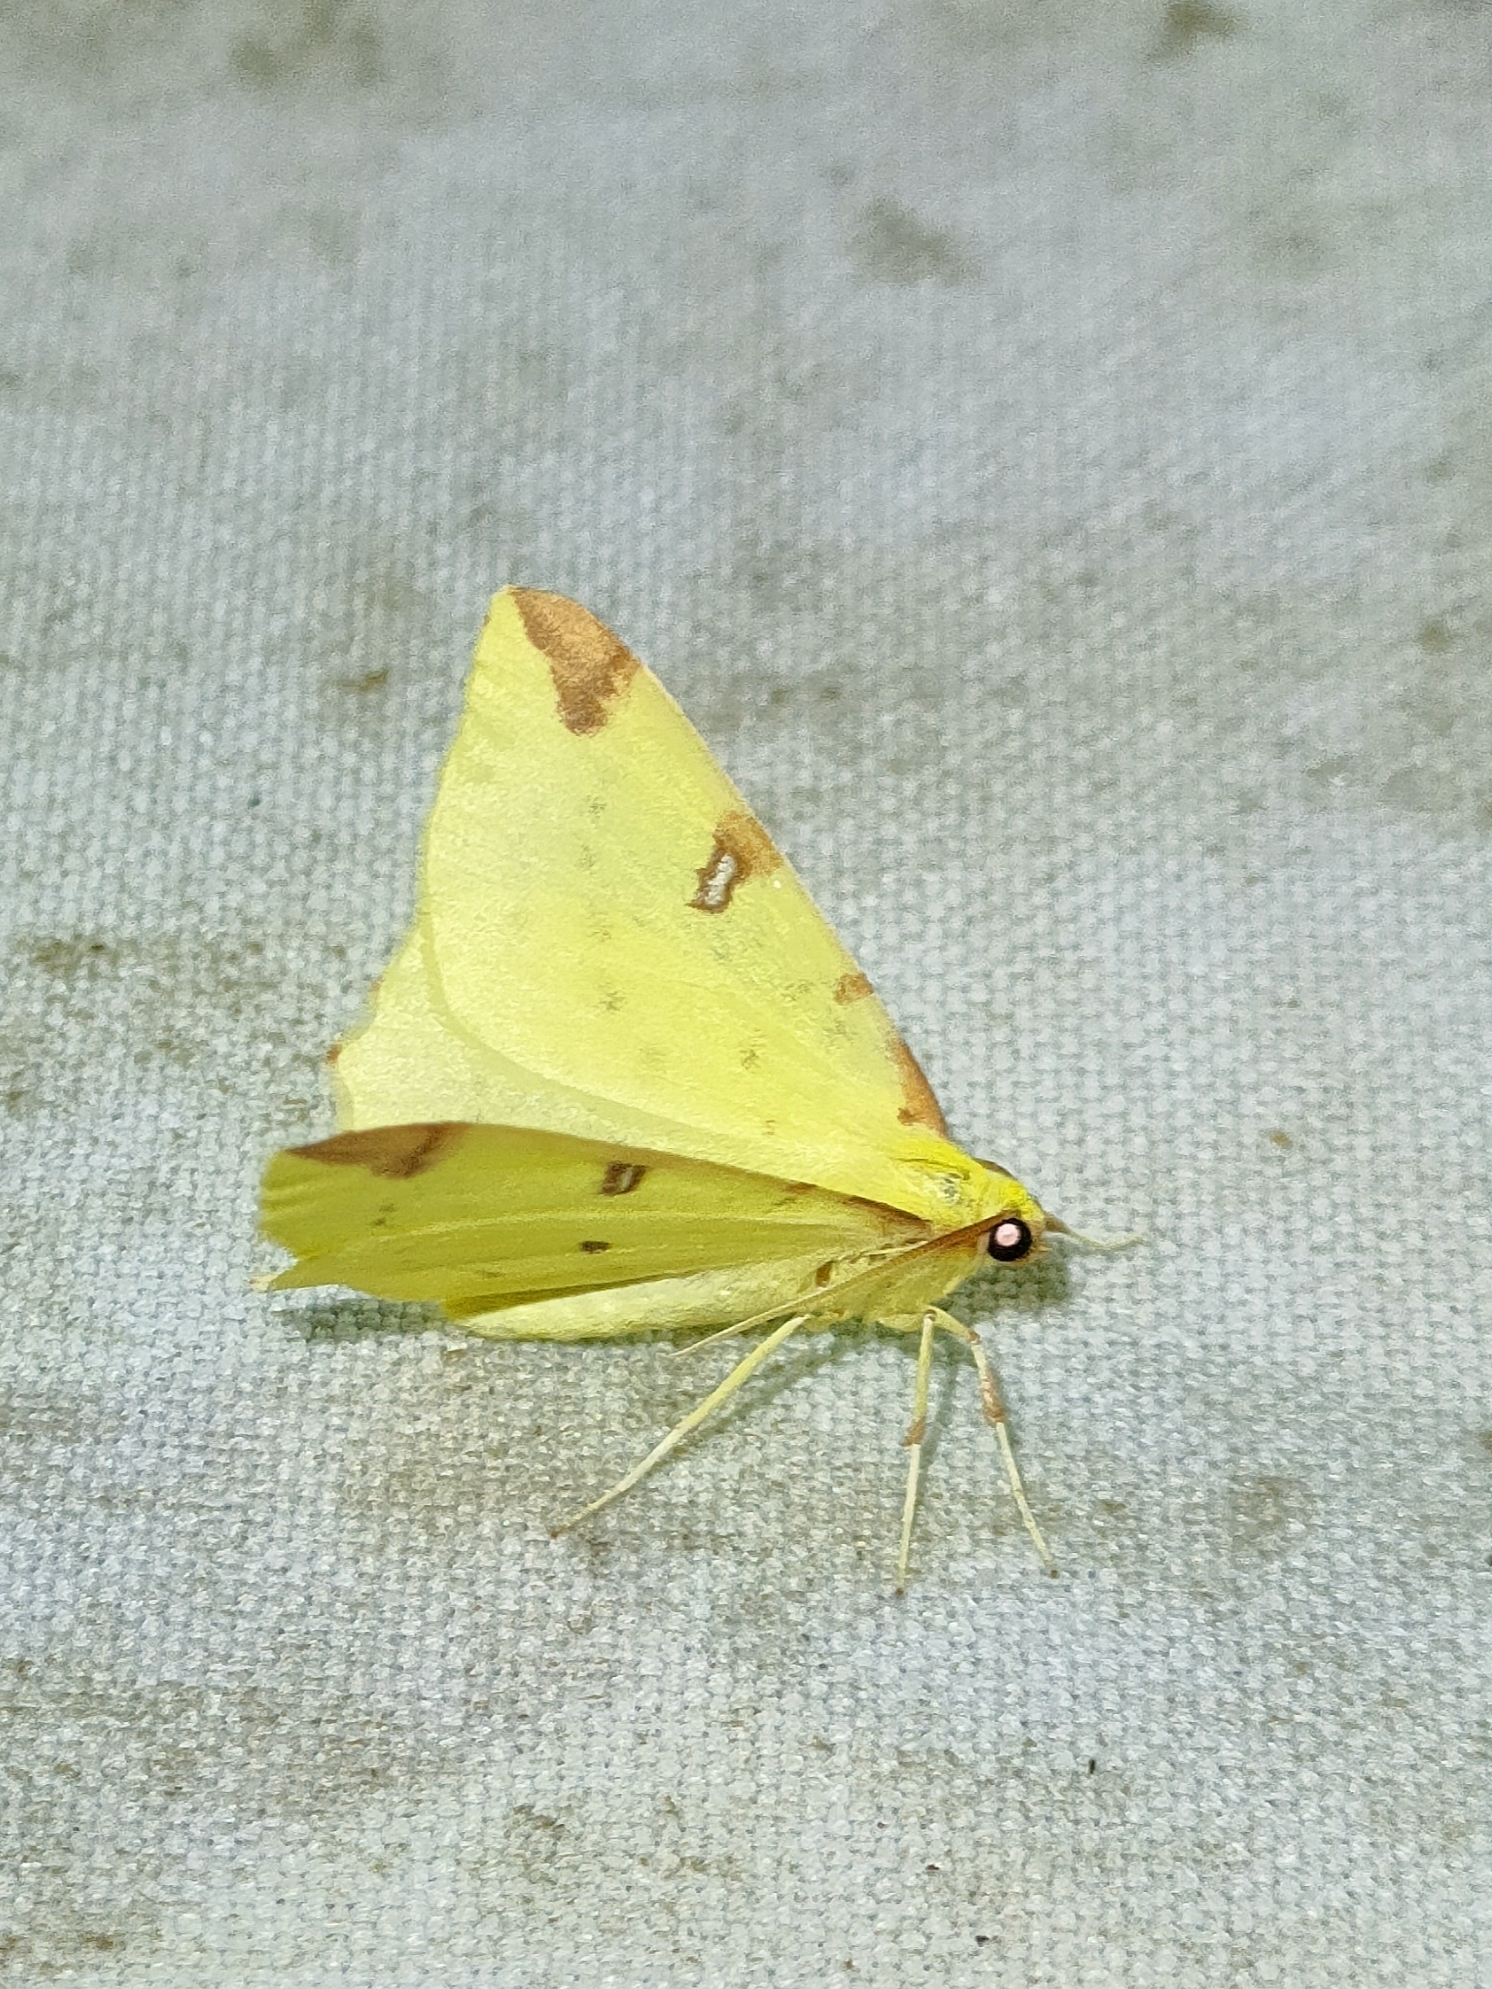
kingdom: Animalia
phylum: Arthropoda
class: Insecta
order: Lepidoptera
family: Geometridae
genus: Opisthograptis
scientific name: Opisthograptis luteolata
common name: Brimstone moth
